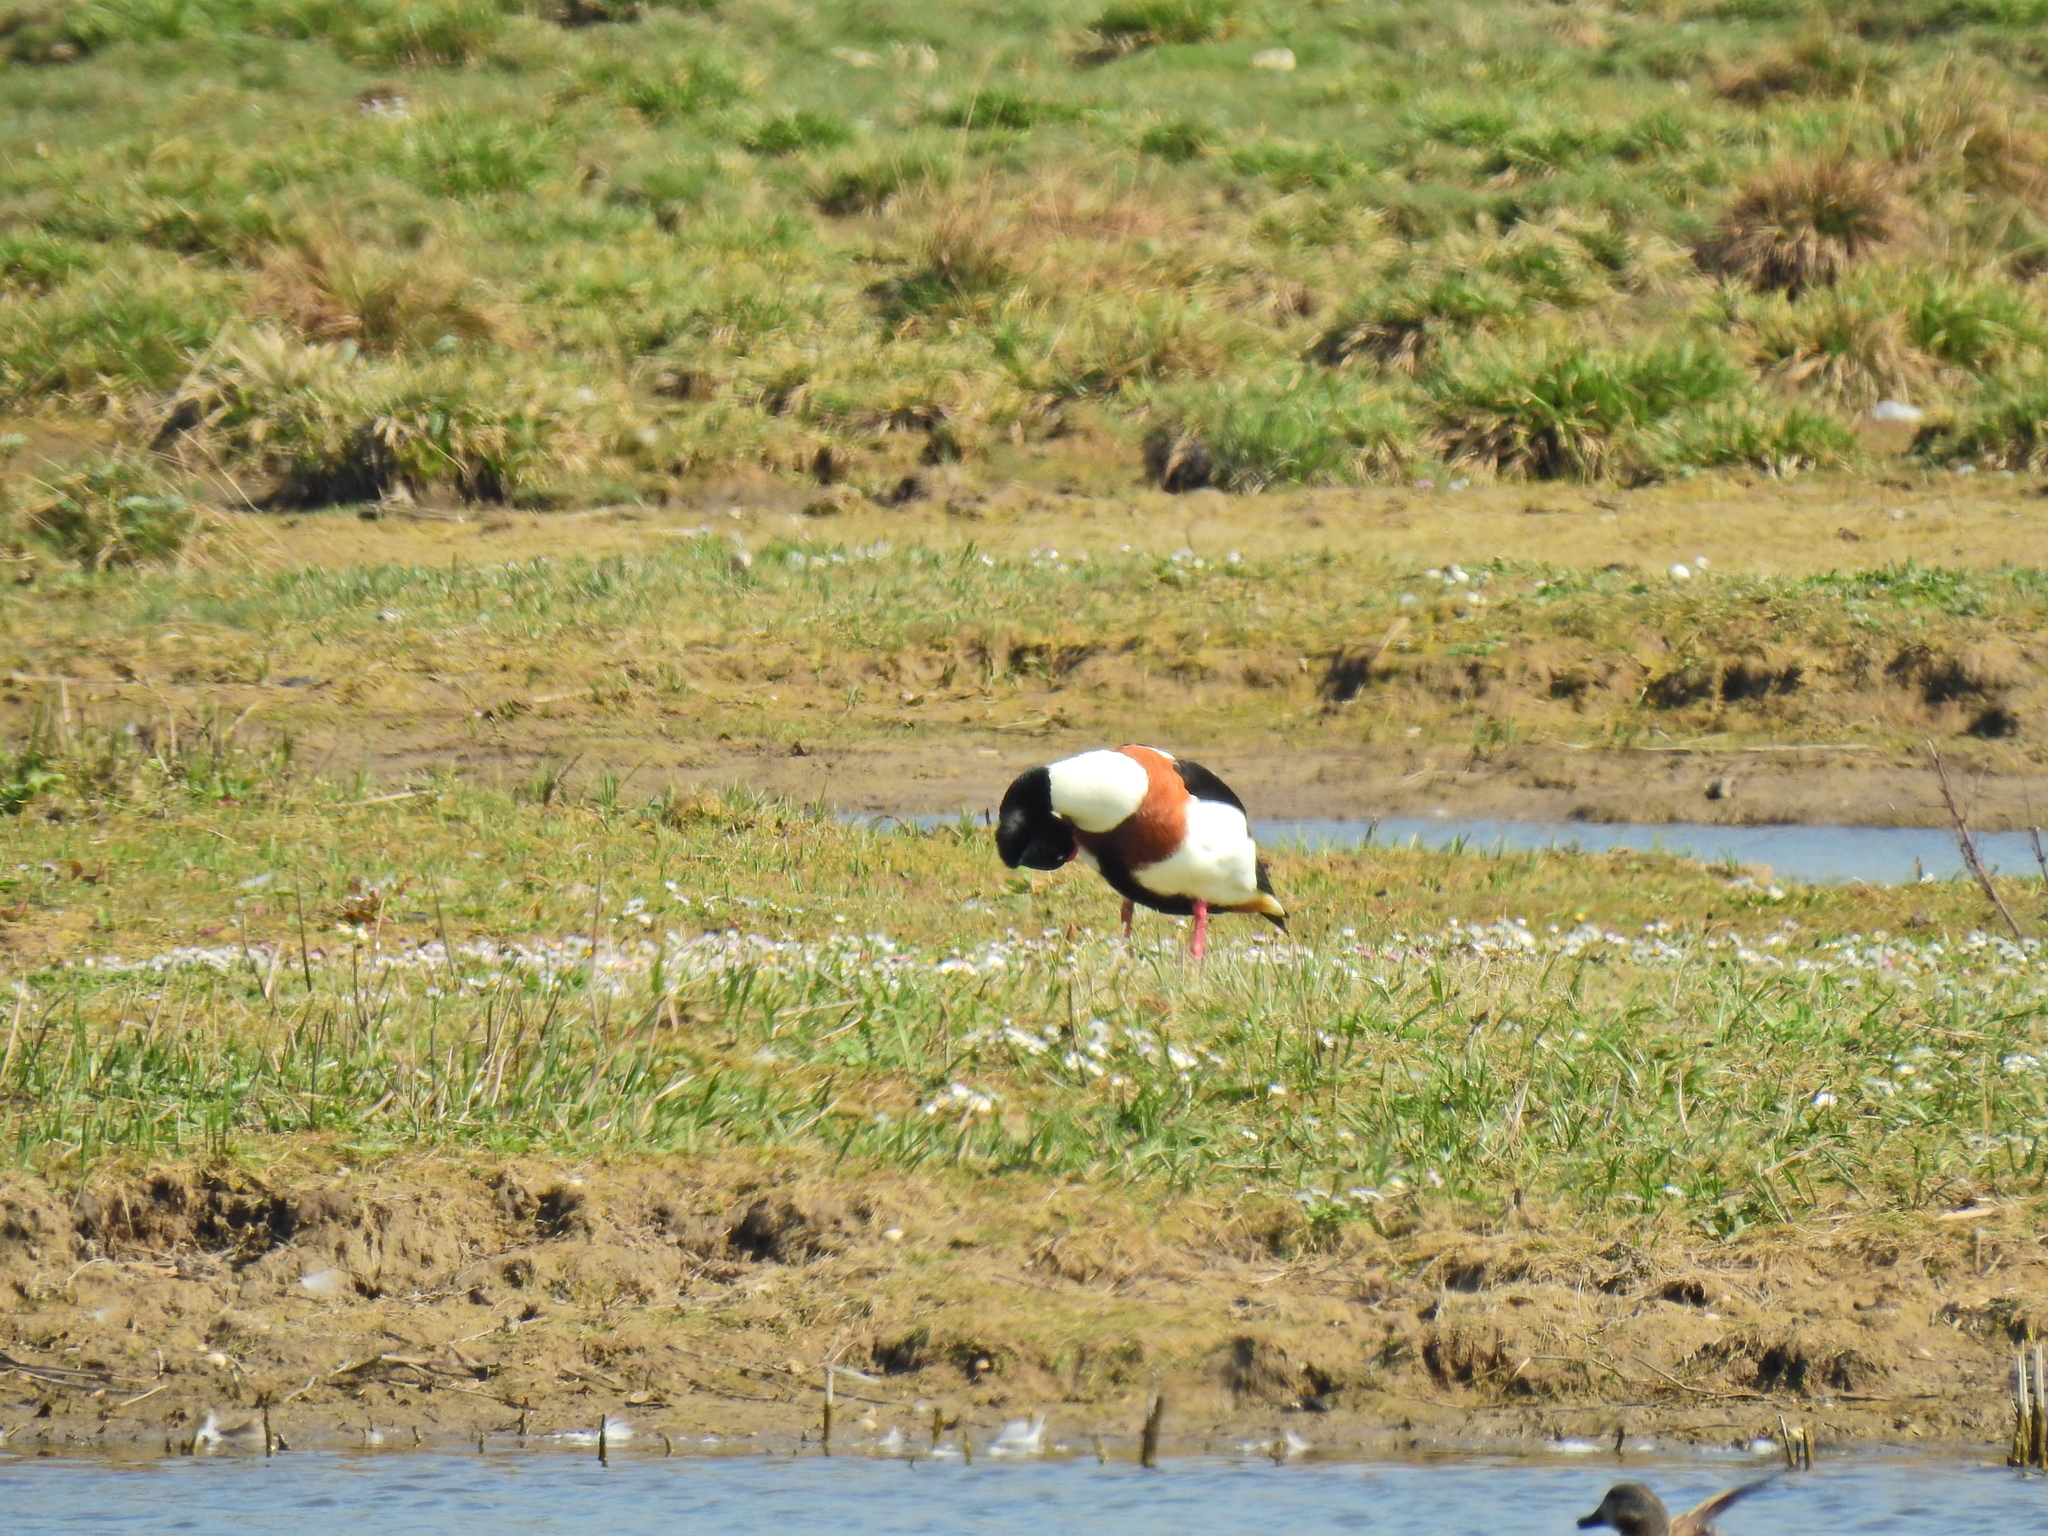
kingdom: Animalia
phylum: Chordata
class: Aves
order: Anseriformes
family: Anatidae
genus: Tadorna
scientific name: Tadorna tadorna
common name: Common shelduck
